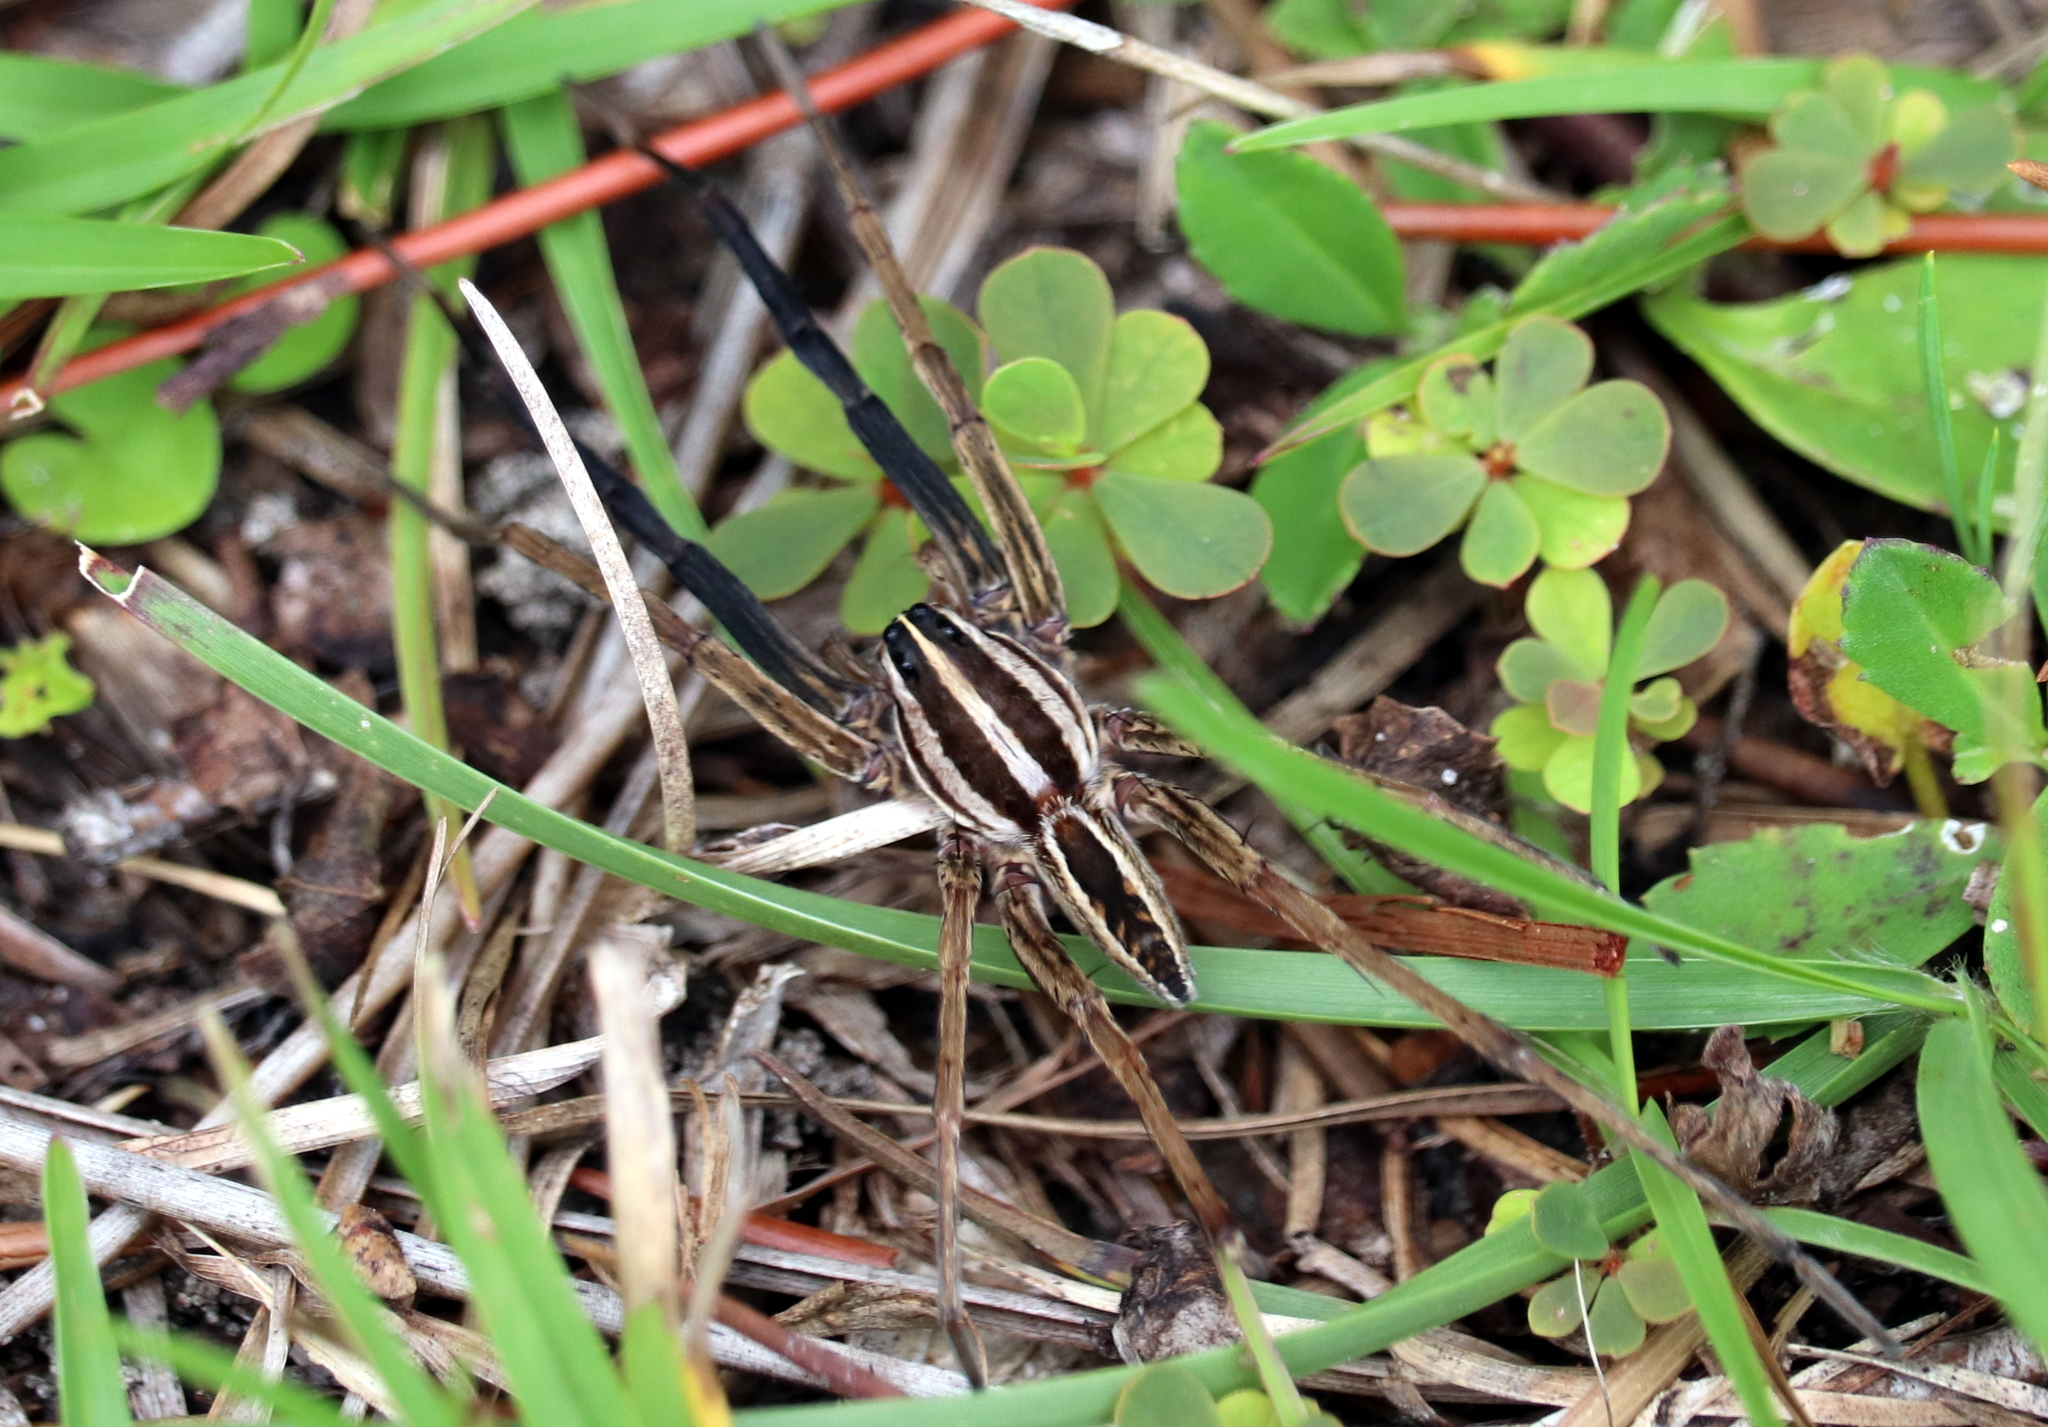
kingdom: Animalia
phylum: Arthropoda
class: Arachnida
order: Araneae
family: Lycosidae
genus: Rabidosa
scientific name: Rabidosa rabida
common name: Rabid wolf spider
